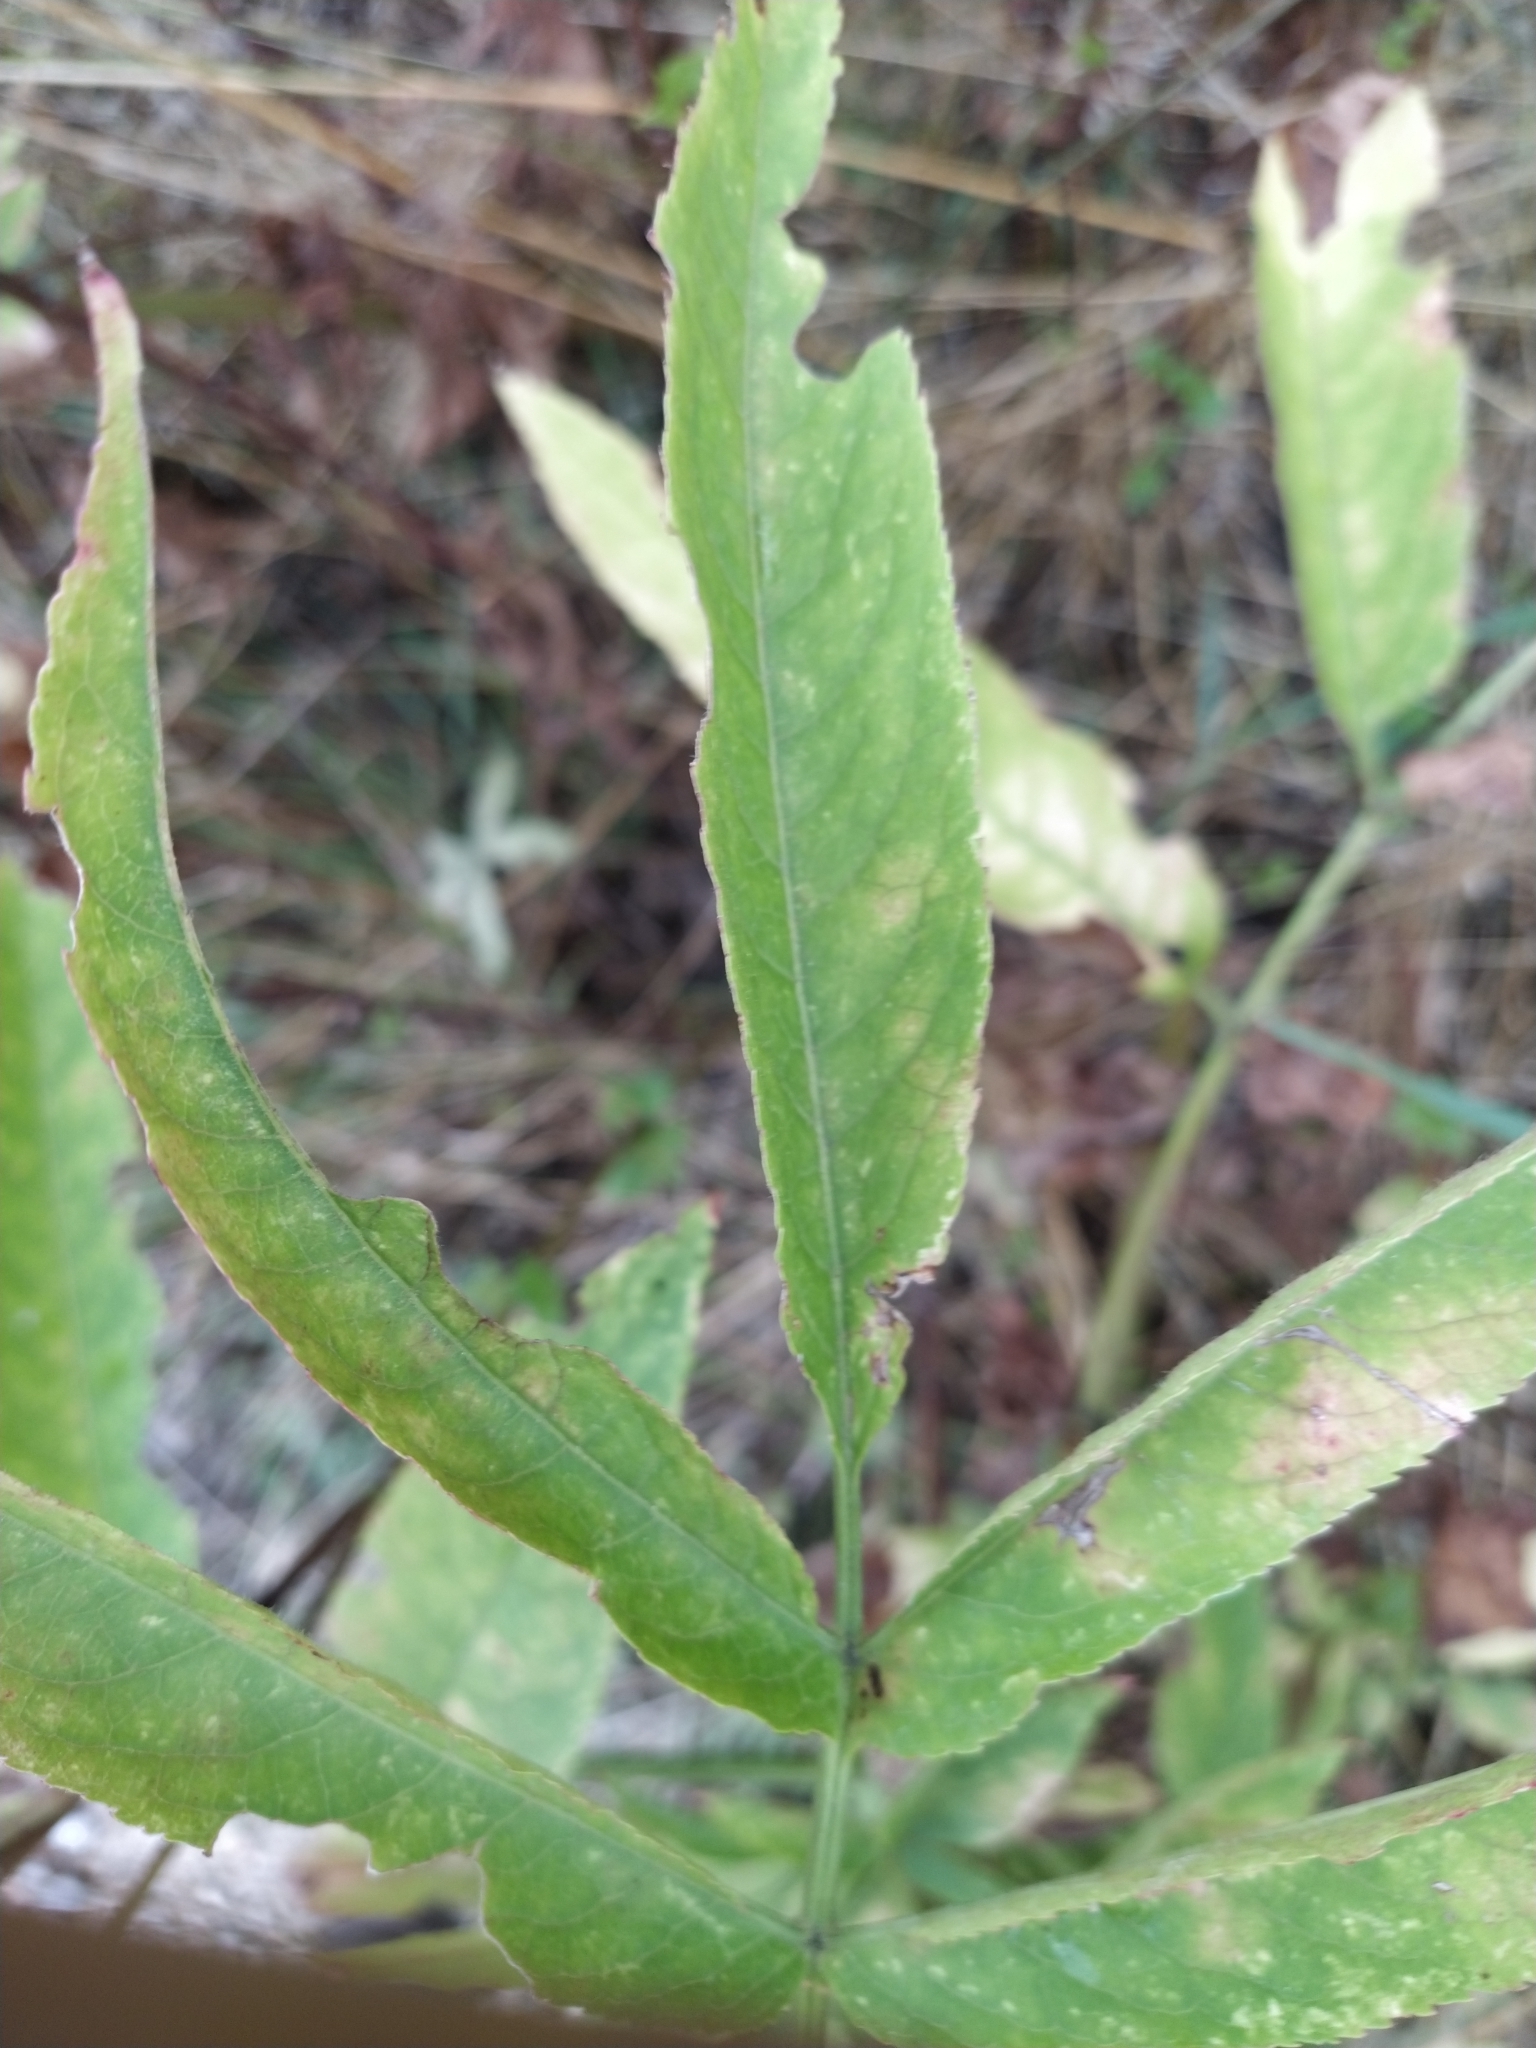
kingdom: Plantae
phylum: Tracheophyta
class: Magnoliopsida
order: Dipsacales
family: Viburnaceae
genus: Sambucus
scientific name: Sambucus ebulus
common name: Dwarf elder
